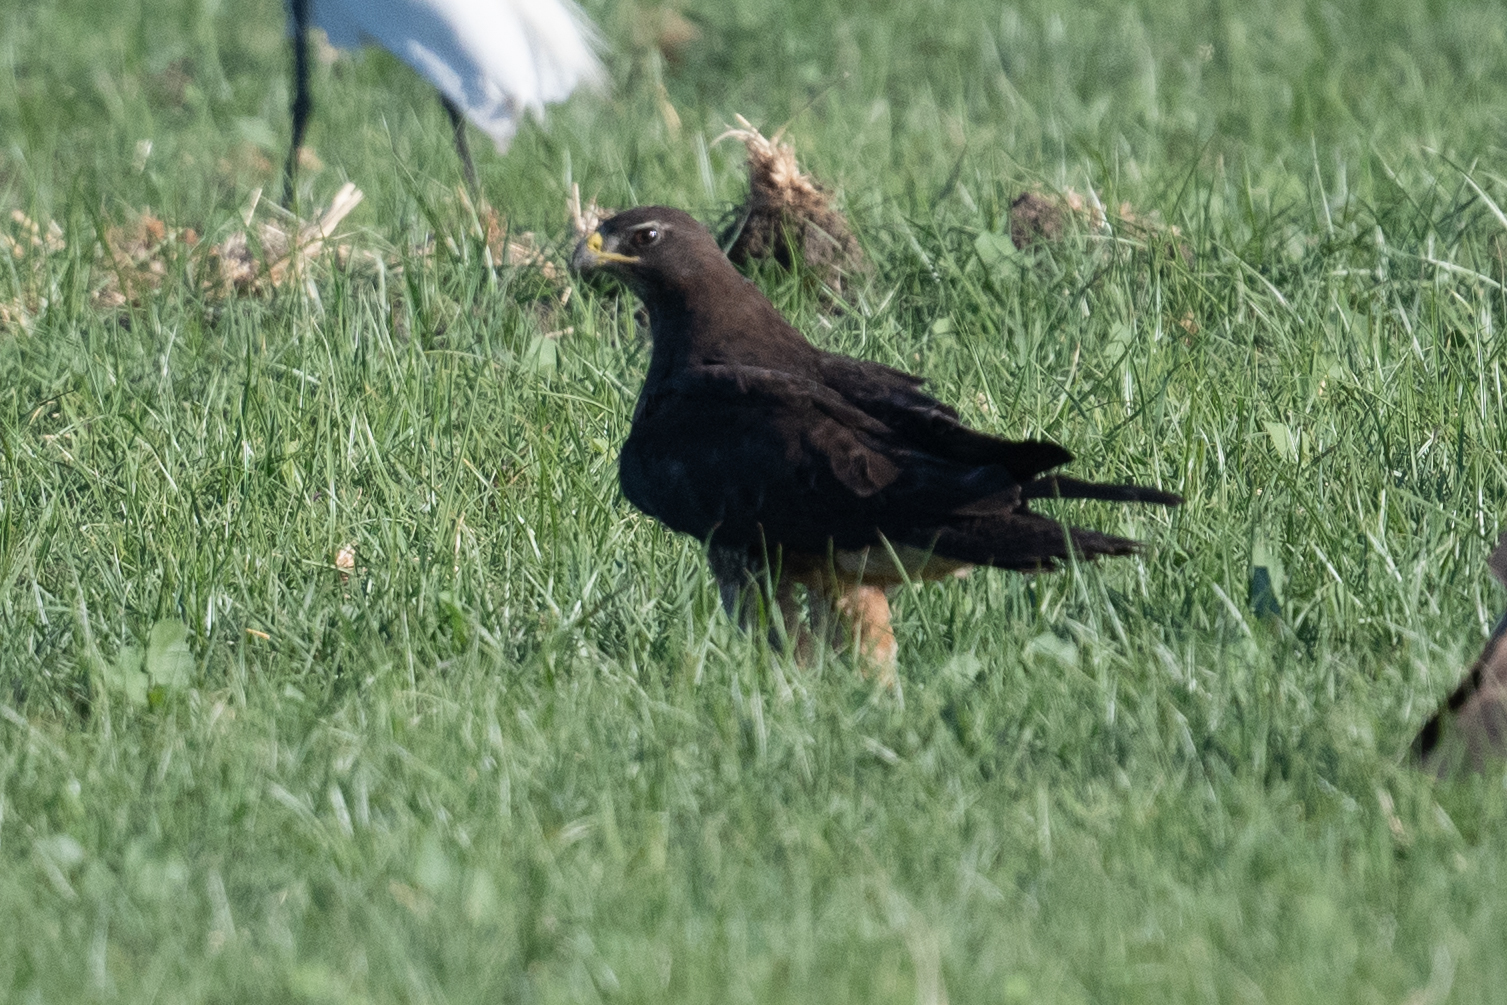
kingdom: Animalia
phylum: Chordata
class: Aves
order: Accipitriformes
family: Accipitridae
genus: Buteo
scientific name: Buteo swainsoni
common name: Swainson's hawk
